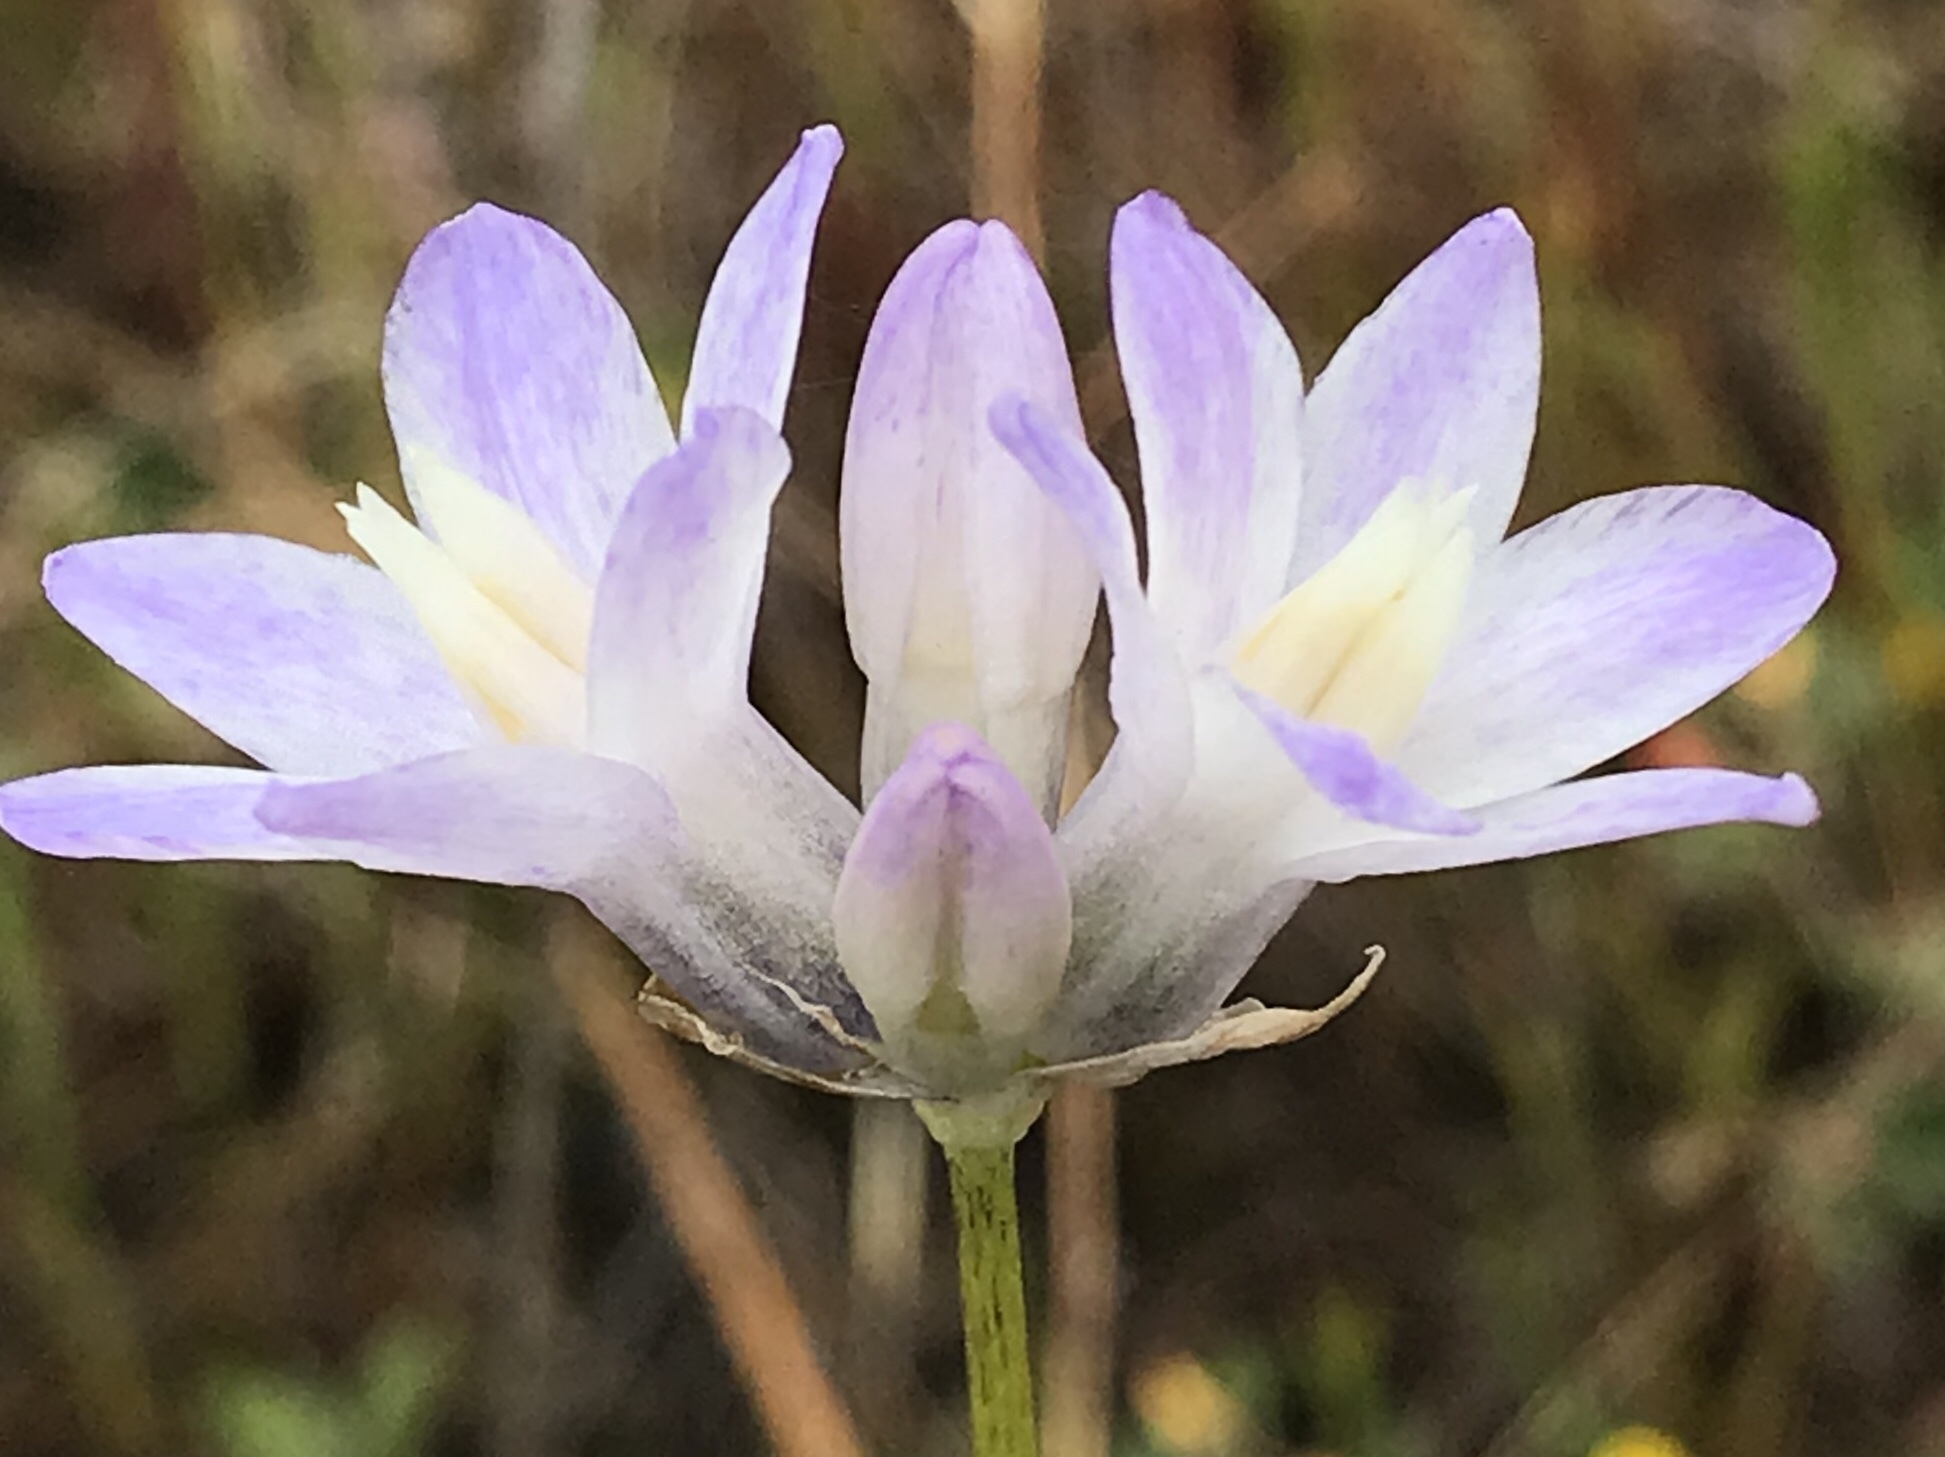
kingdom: Plantae
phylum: Tracheophyta
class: Liliopsida
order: Asparagales
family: Asparagaceae
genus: Dipterostemon
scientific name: Dipterostemon capitatus
